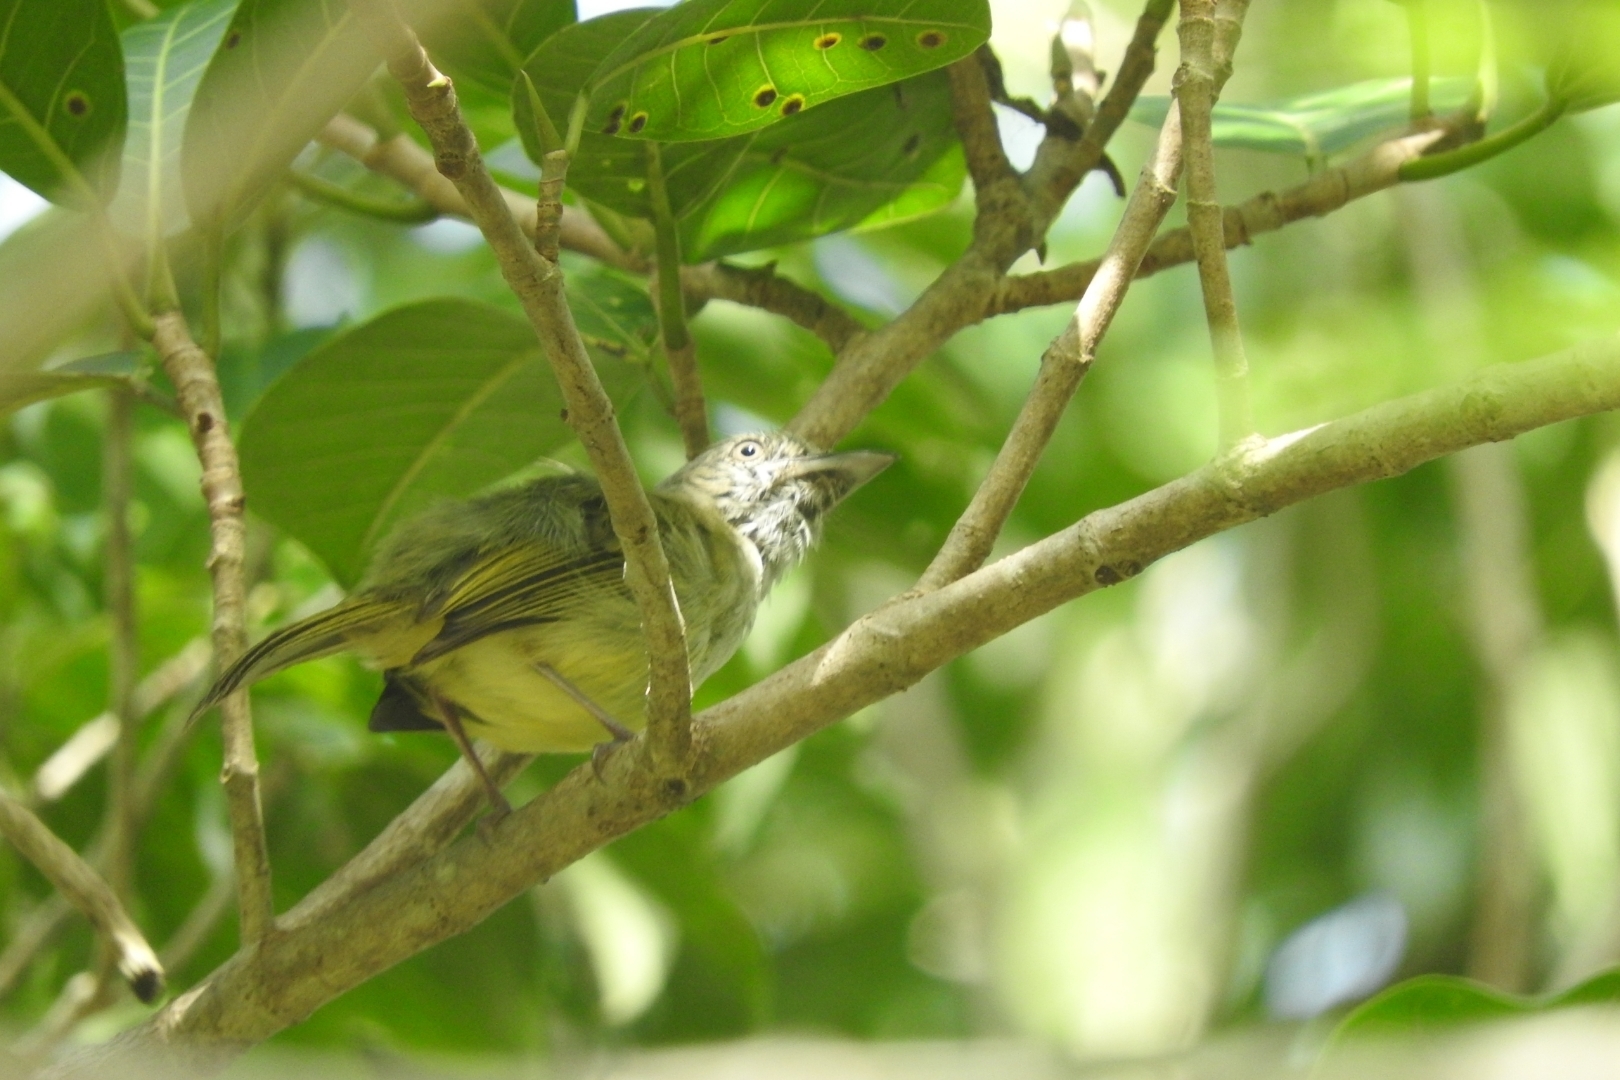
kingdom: Animalia
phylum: Chordata
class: Aves
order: Passeriformes
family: Tyrannidae
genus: Tolmomyias
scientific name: Tolmomyias sulphurescens
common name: Yellow-olive flycatcher
